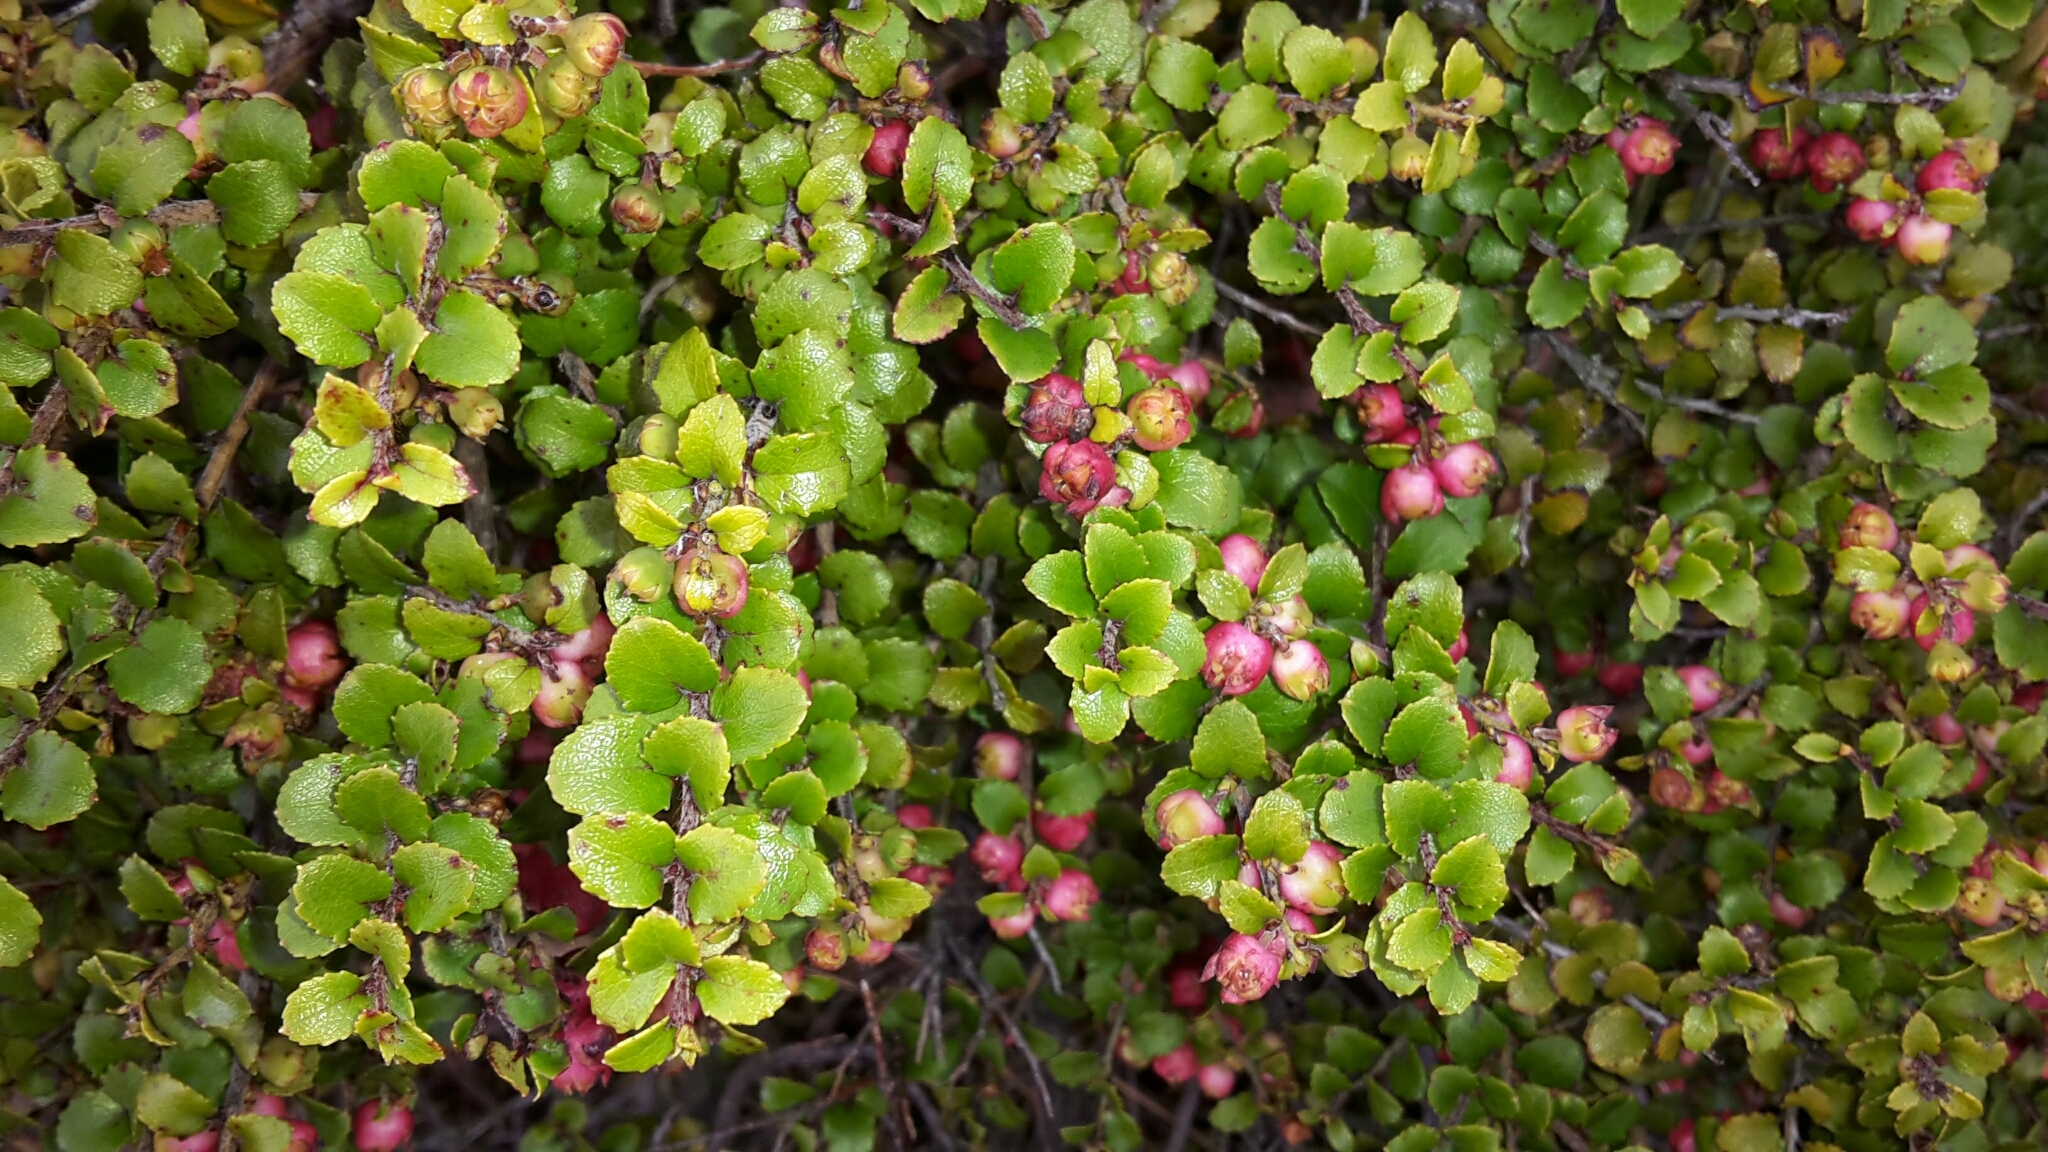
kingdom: Plantae
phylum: Tracheophyta
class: Magnoliopsida
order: Ericales
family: Ericaceae
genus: Gaultheria
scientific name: Gaultheria antipoda
